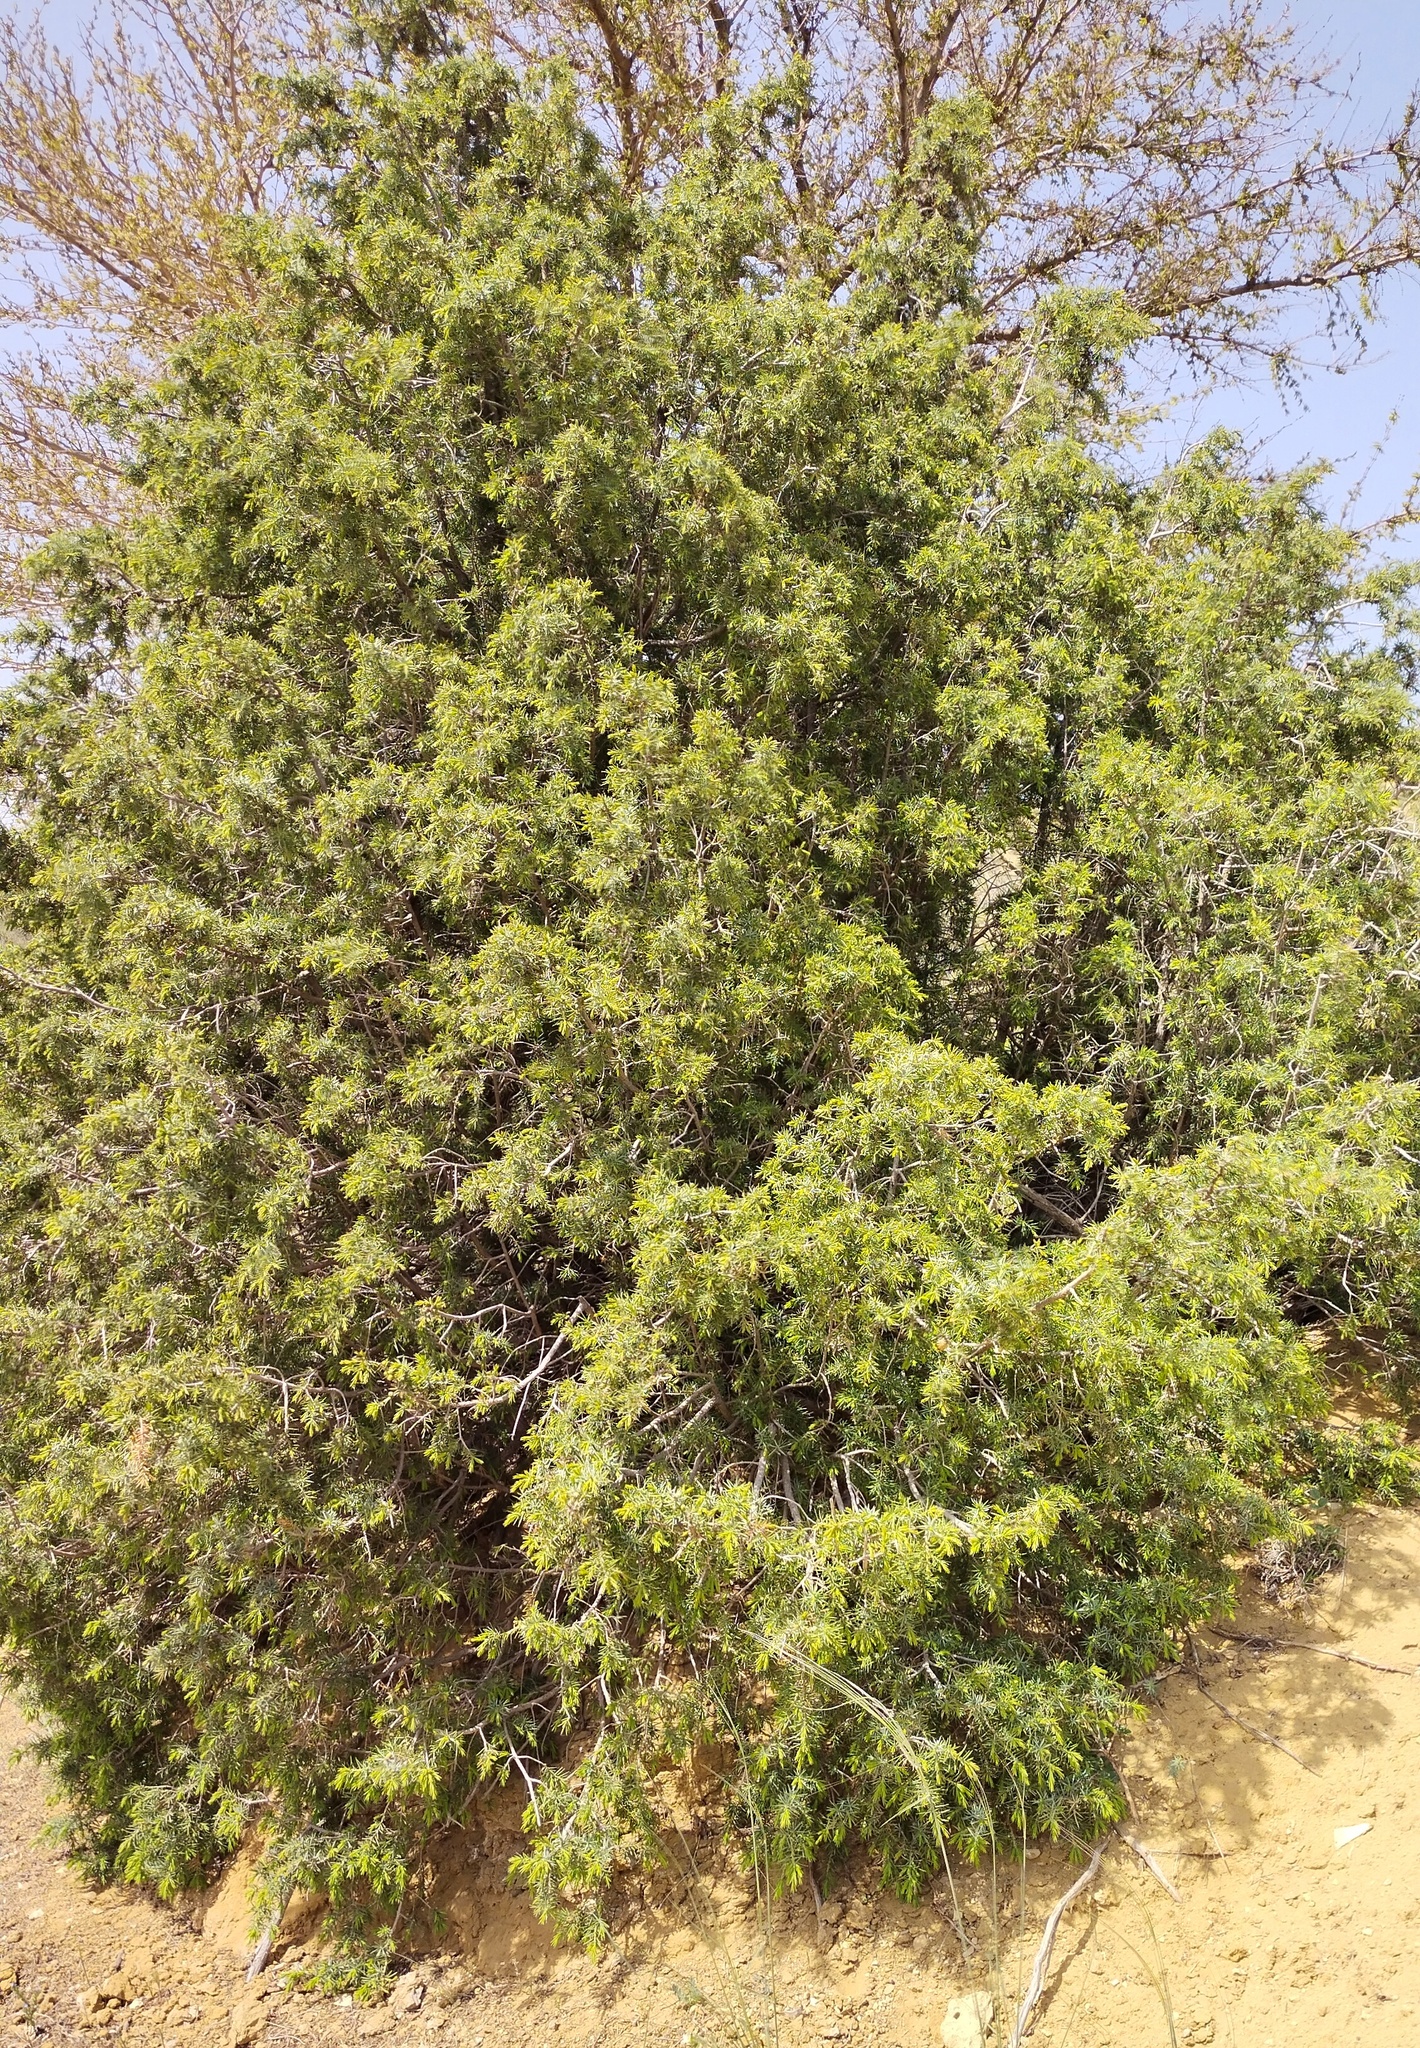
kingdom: Plantae
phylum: Tracheophyta
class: Pinopsida
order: Pinales
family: Cupressaceae
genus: Juniperus
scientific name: Juniperus communis
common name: Common juniper
